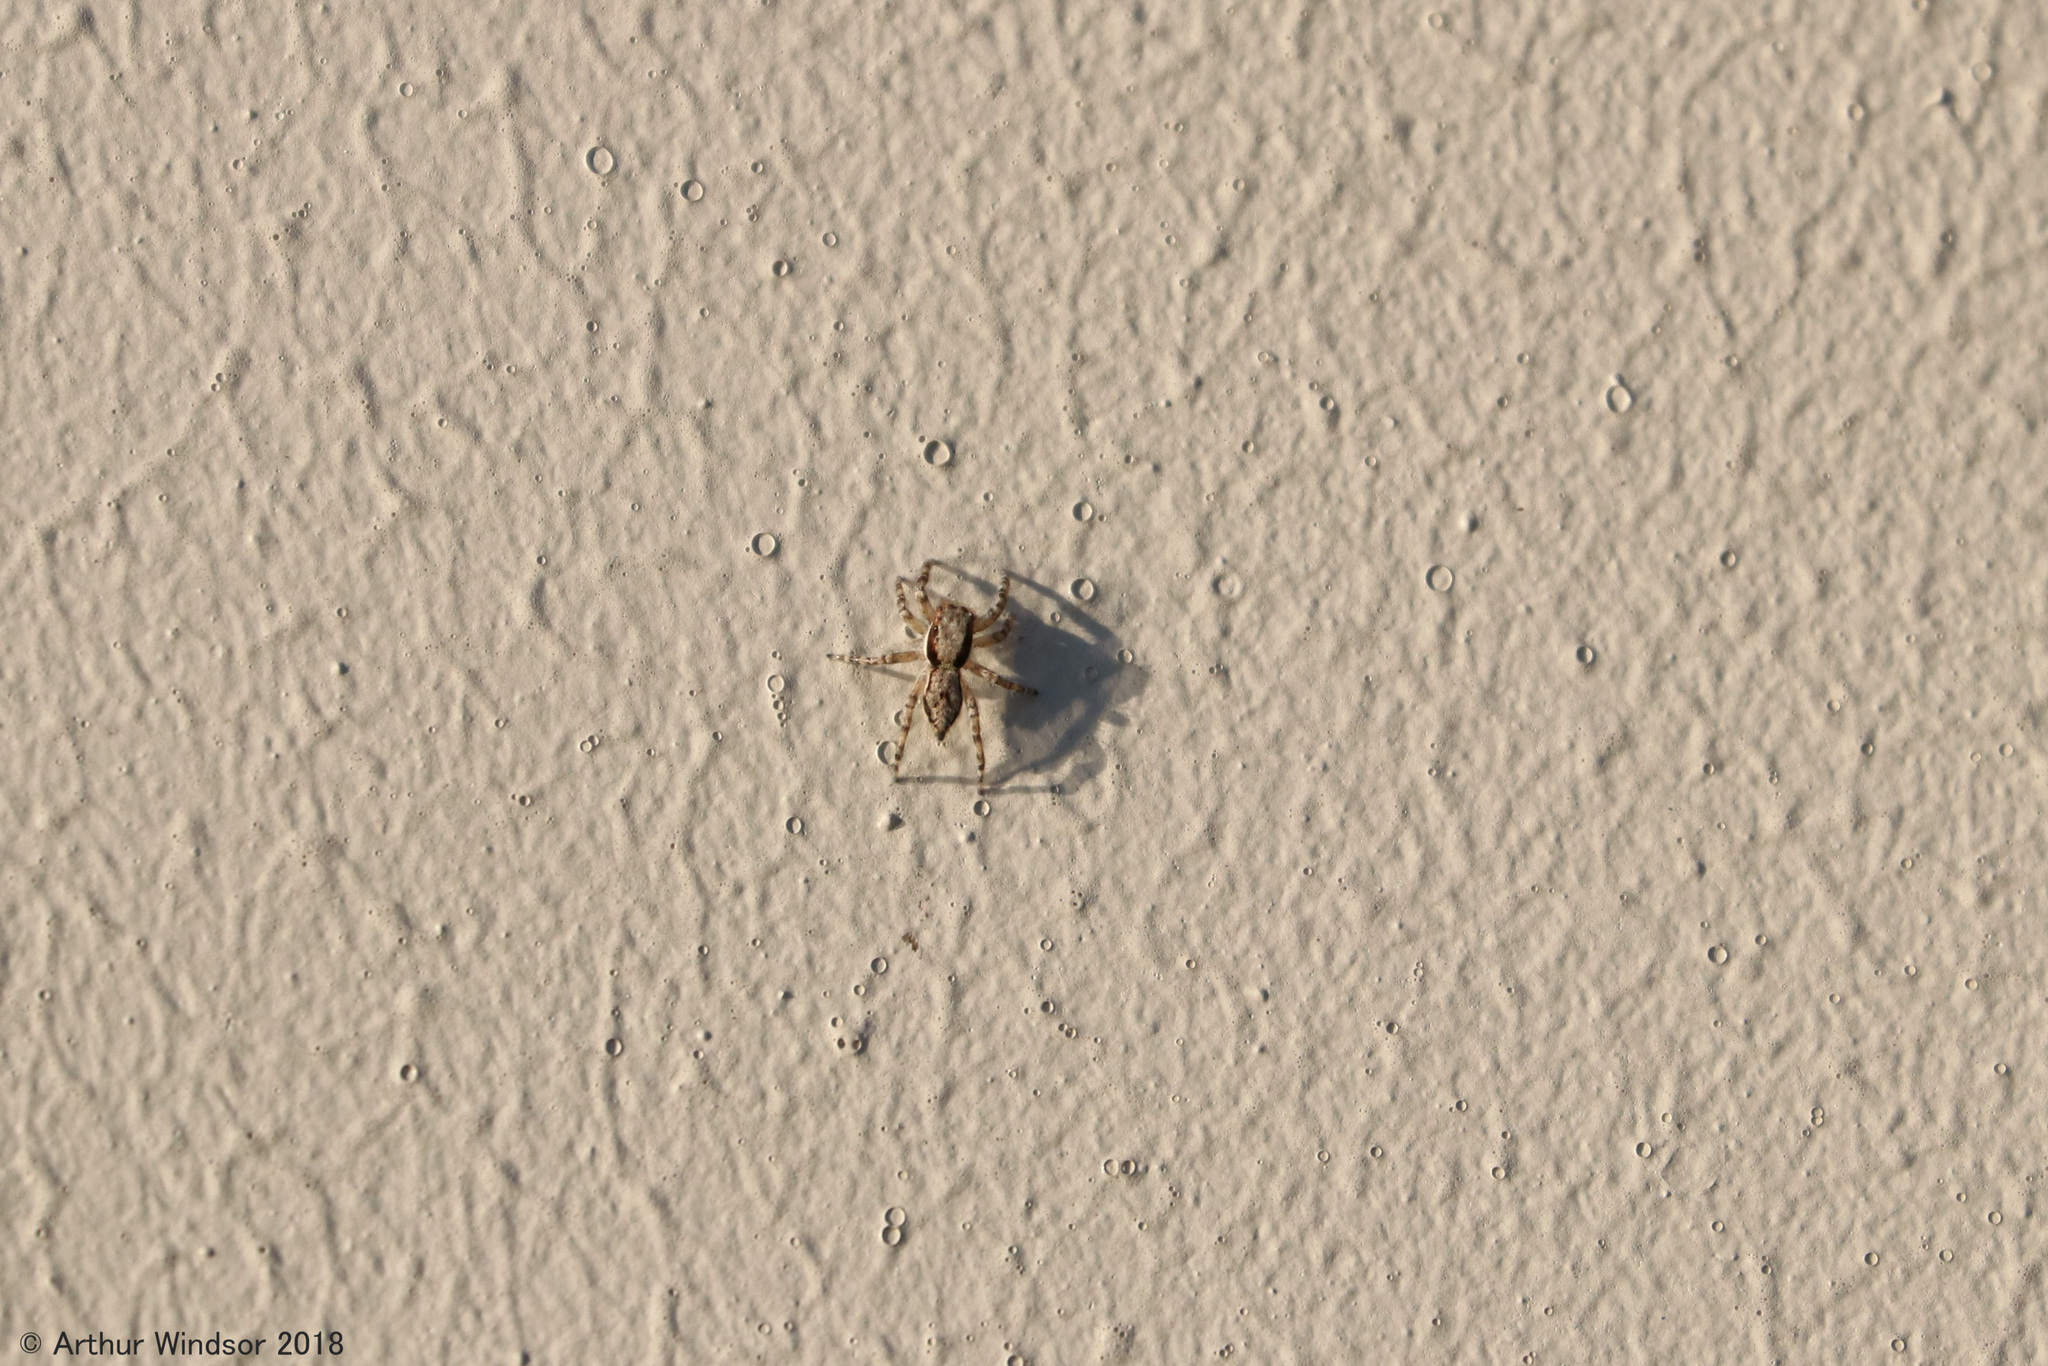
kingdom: Animalia
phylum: Arthropoda
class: Arachnida
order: Araneae
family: Salticidae
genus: Menemerus
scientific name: Menemerus bivittatus
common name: Gray wall jumper
